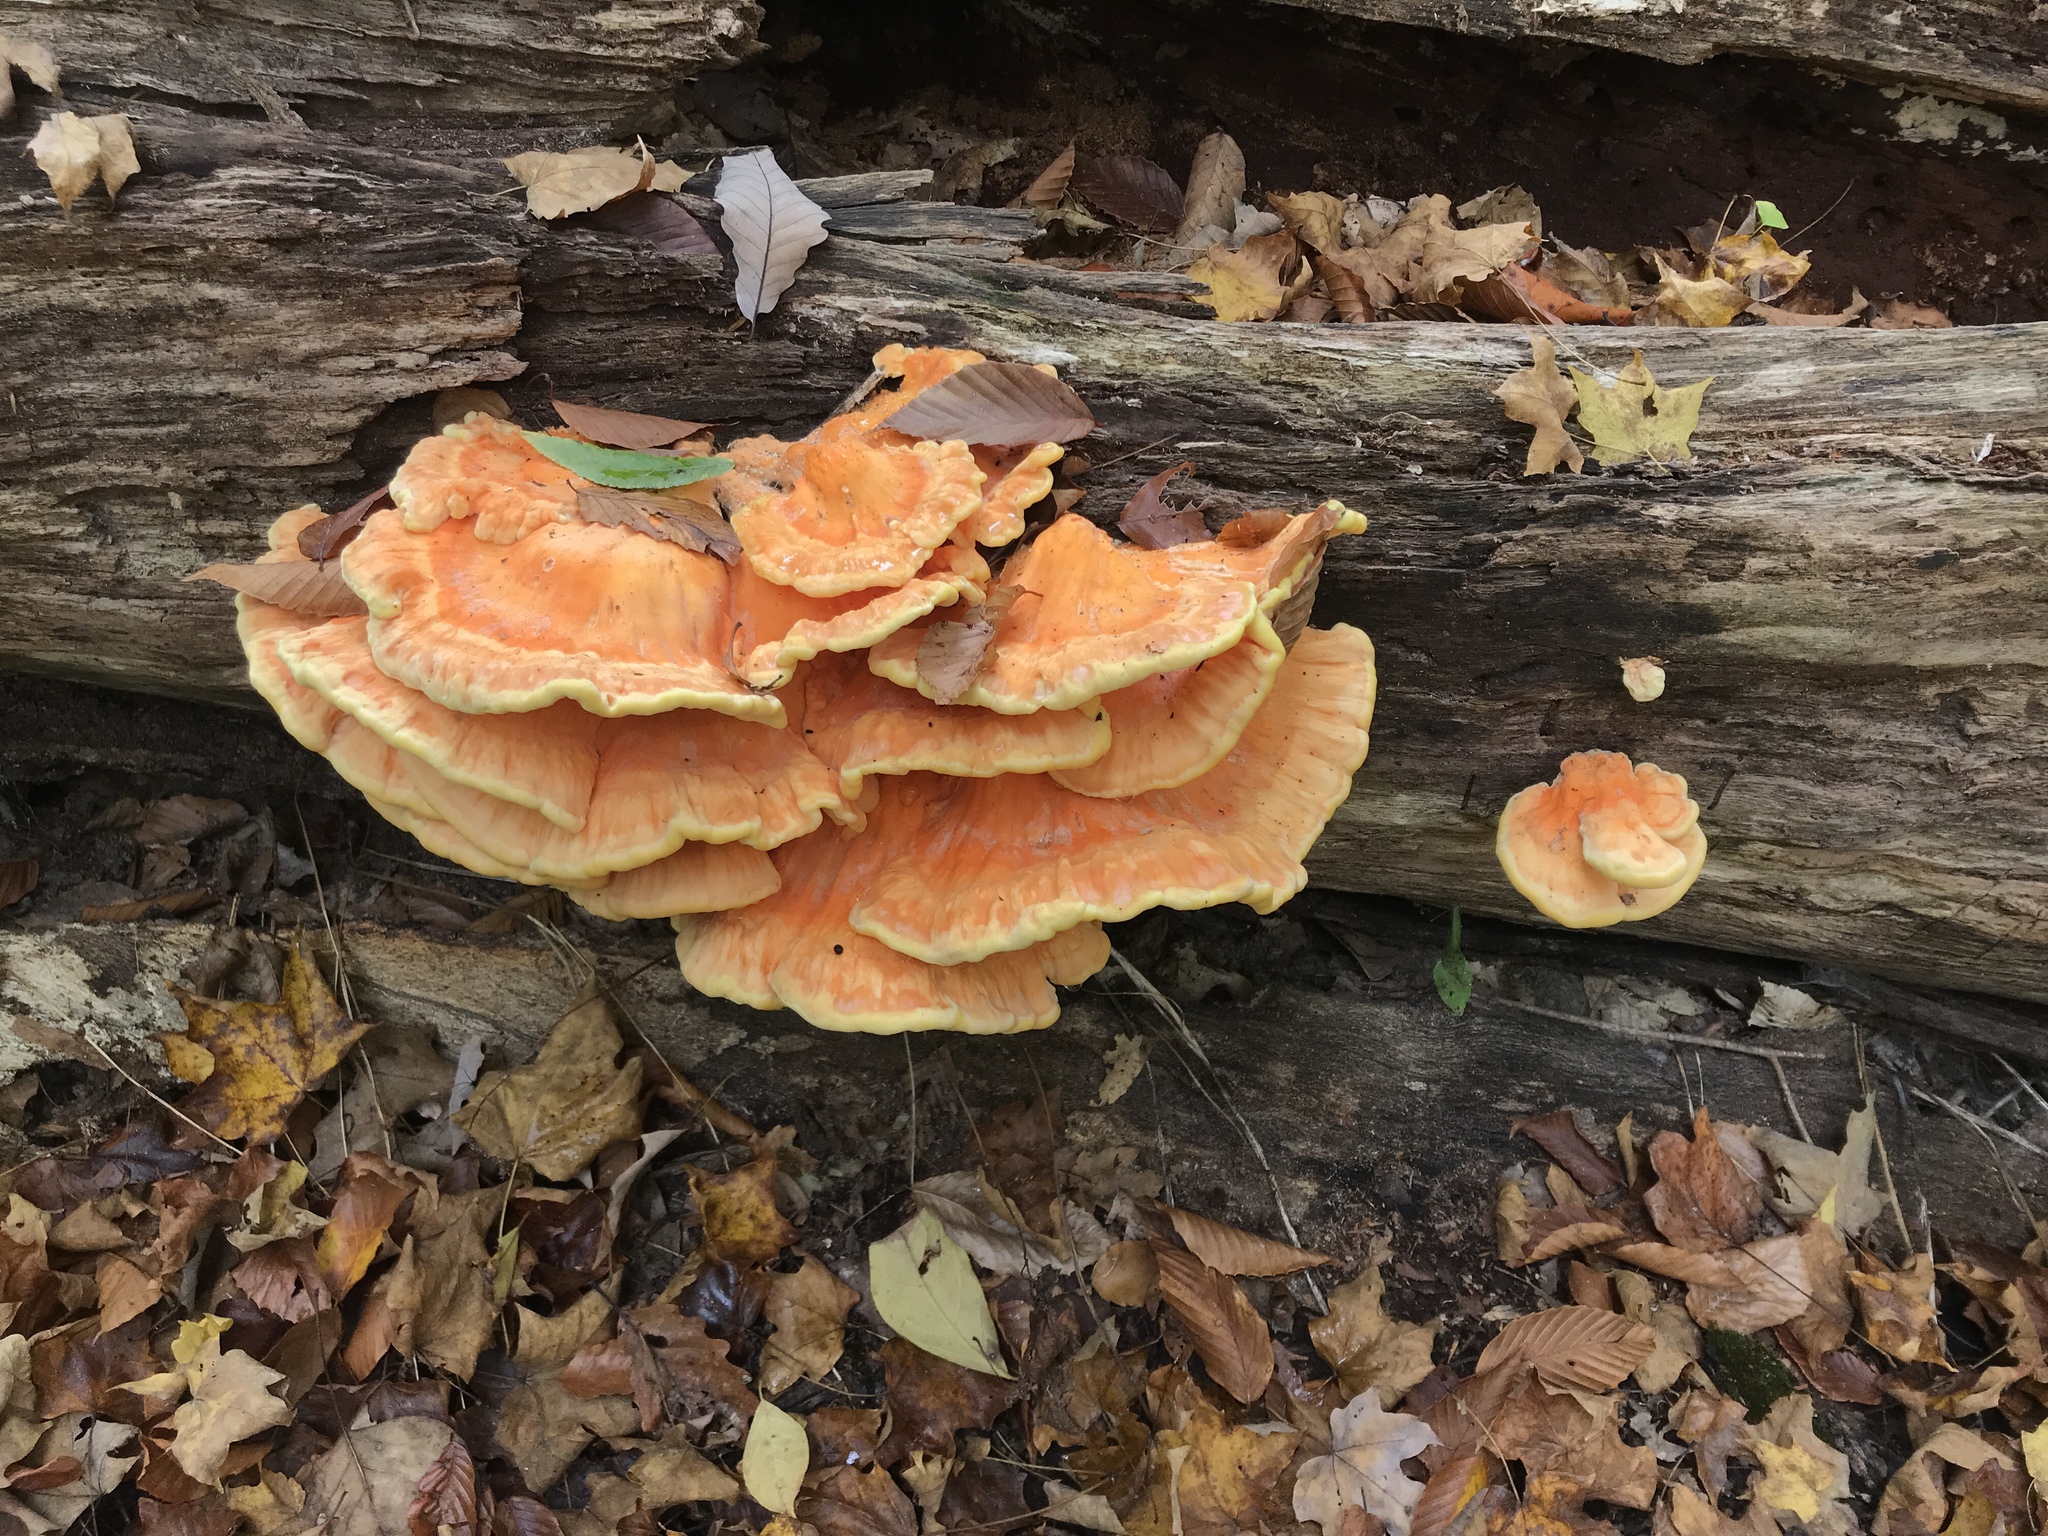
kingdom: Fungi
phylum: Basidiomycota
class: Agaricomycetes
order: Polyporales
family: Laetiporaceae
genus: Laetiporus
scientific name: Laetiporus sulphureus
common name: Chicken of the woods
